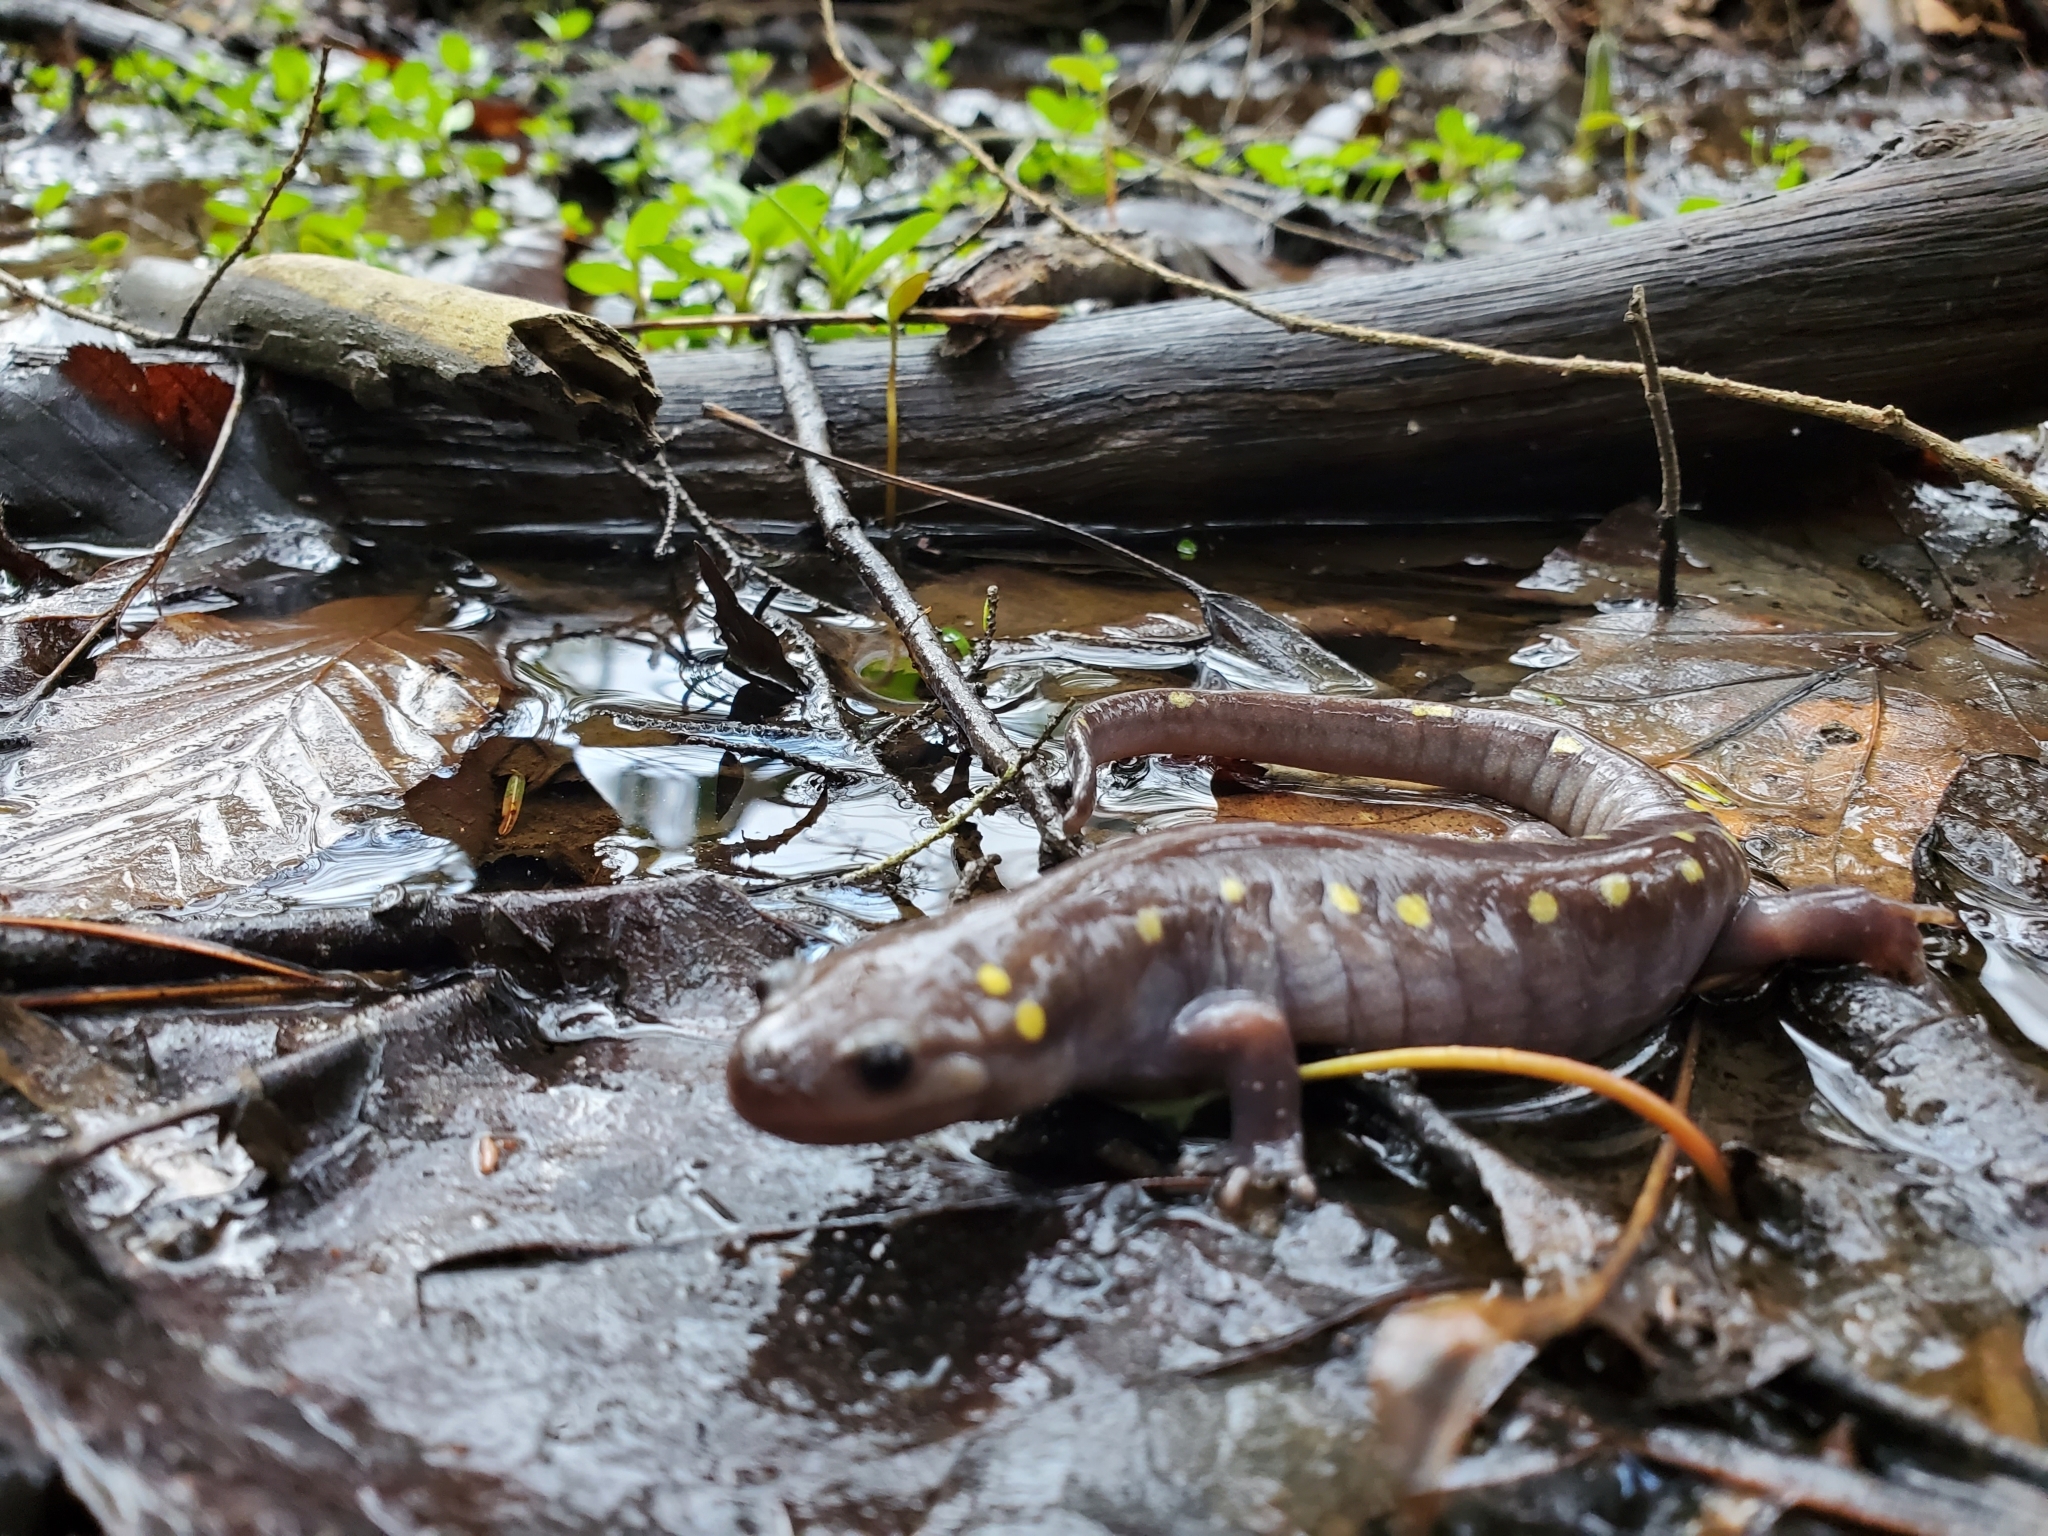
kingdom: Animalia
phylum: Chordata
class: Amphibia
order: Caudata
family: Ambystomatidae
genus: Ambystoma
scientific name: Ambystoma maculatum
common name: Spotted salamander
